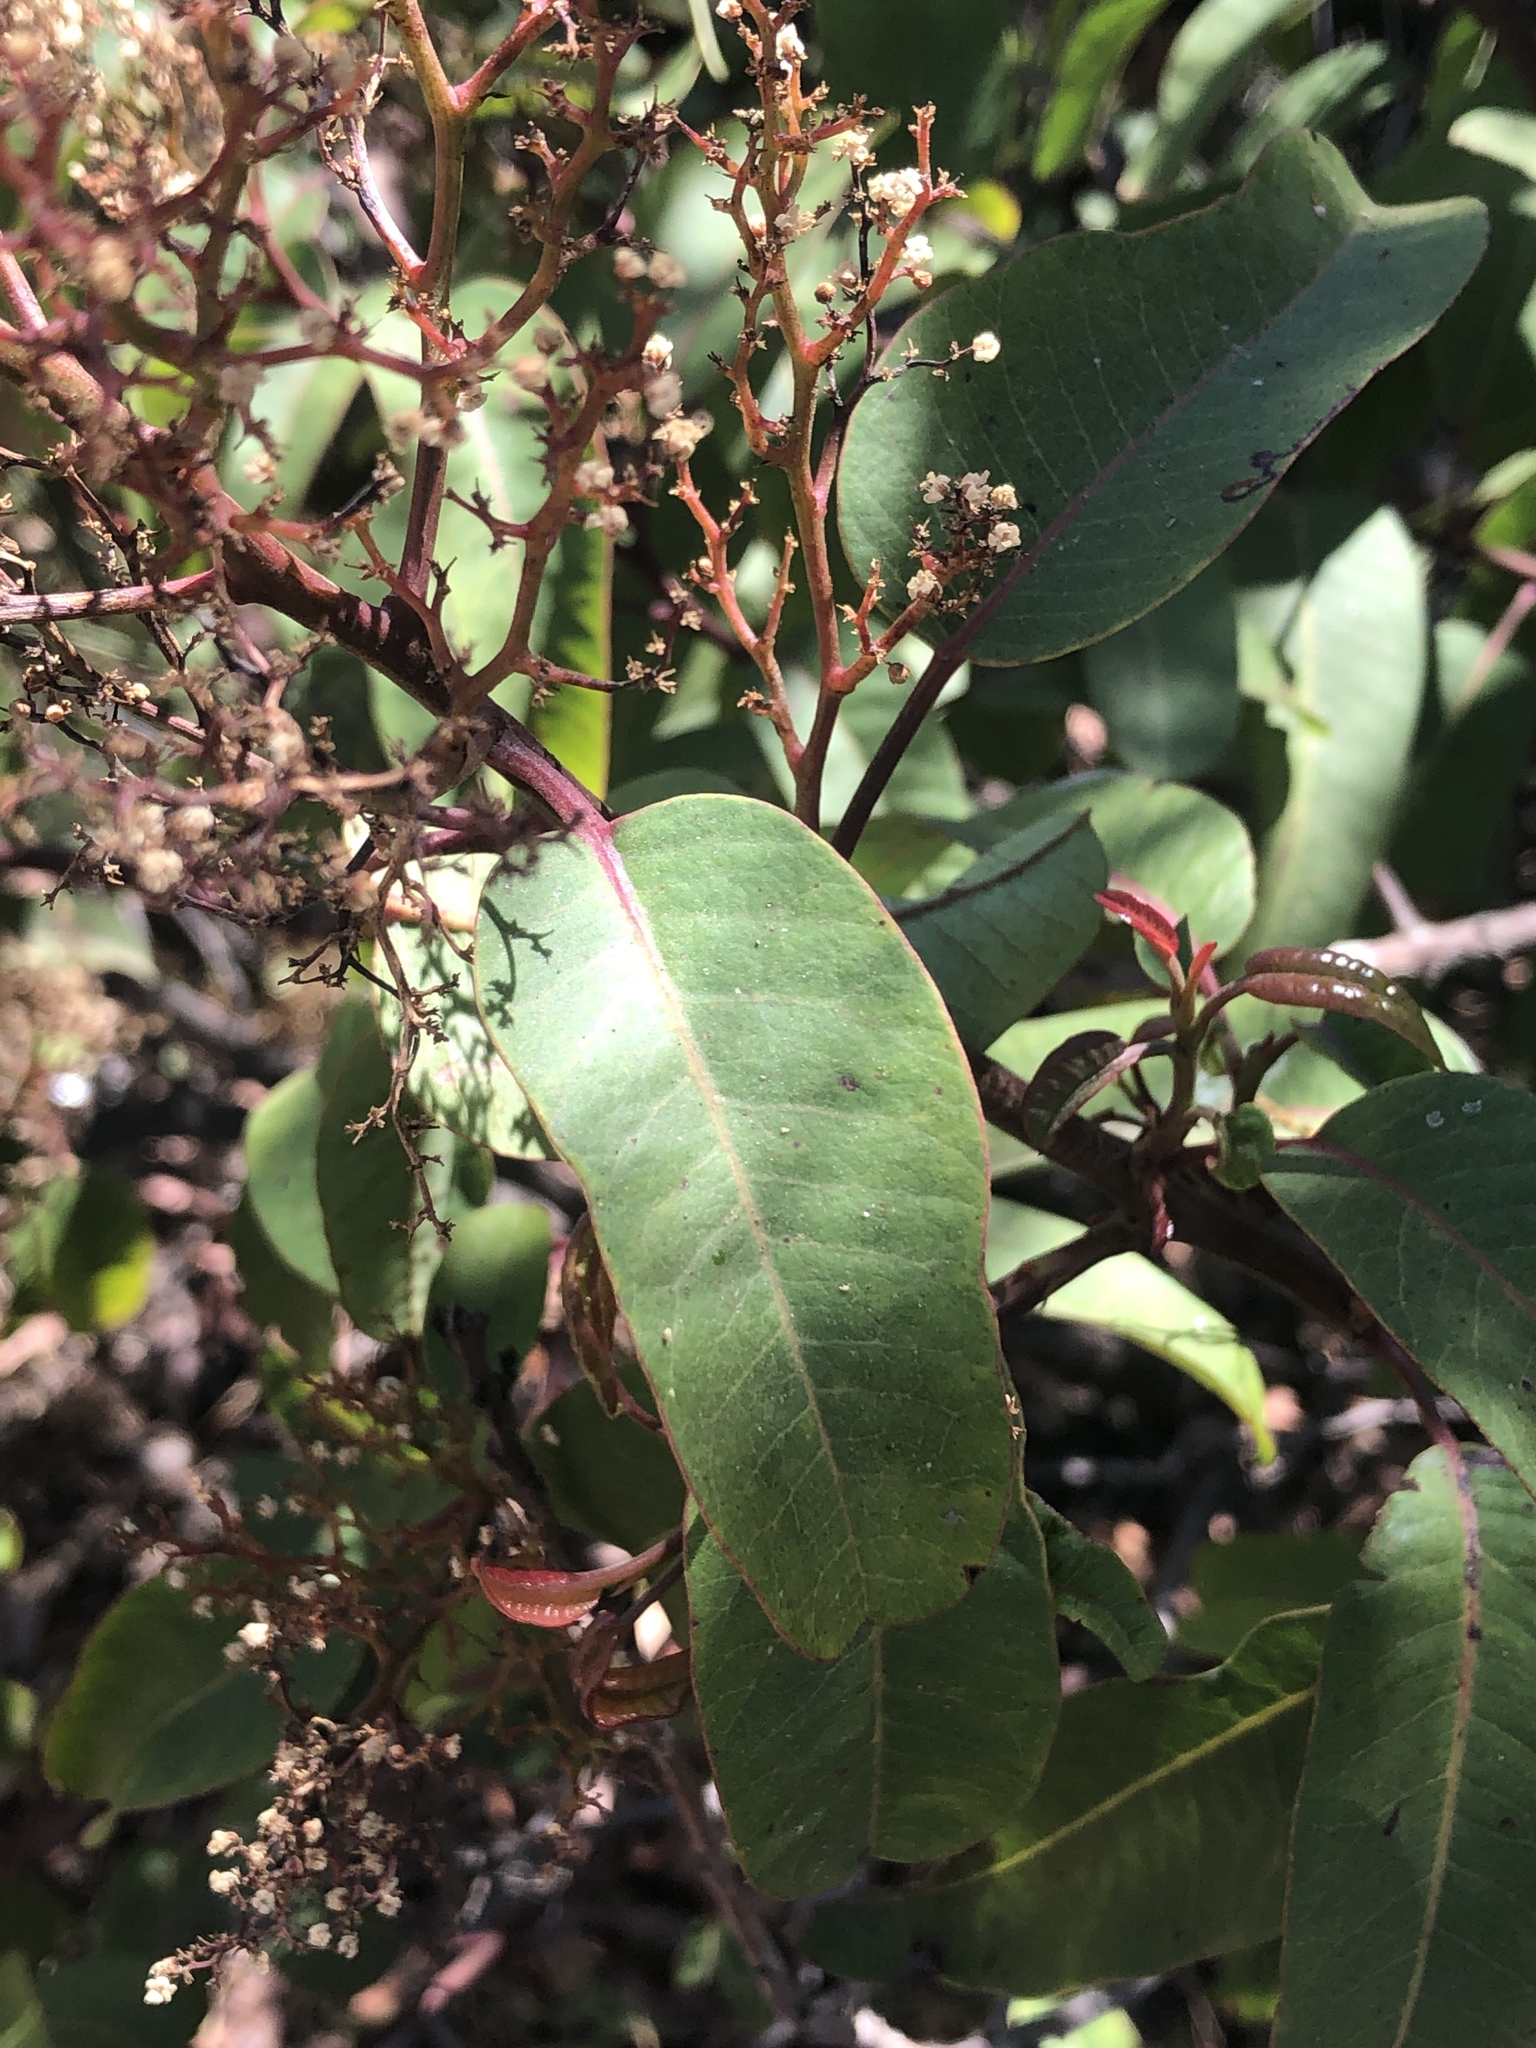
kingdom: Plantae
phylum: Tracheophyta
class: Magnoliopsida
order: Sapindales
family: Anacardiaceae
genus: Malosma
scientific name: Malosma laurina
